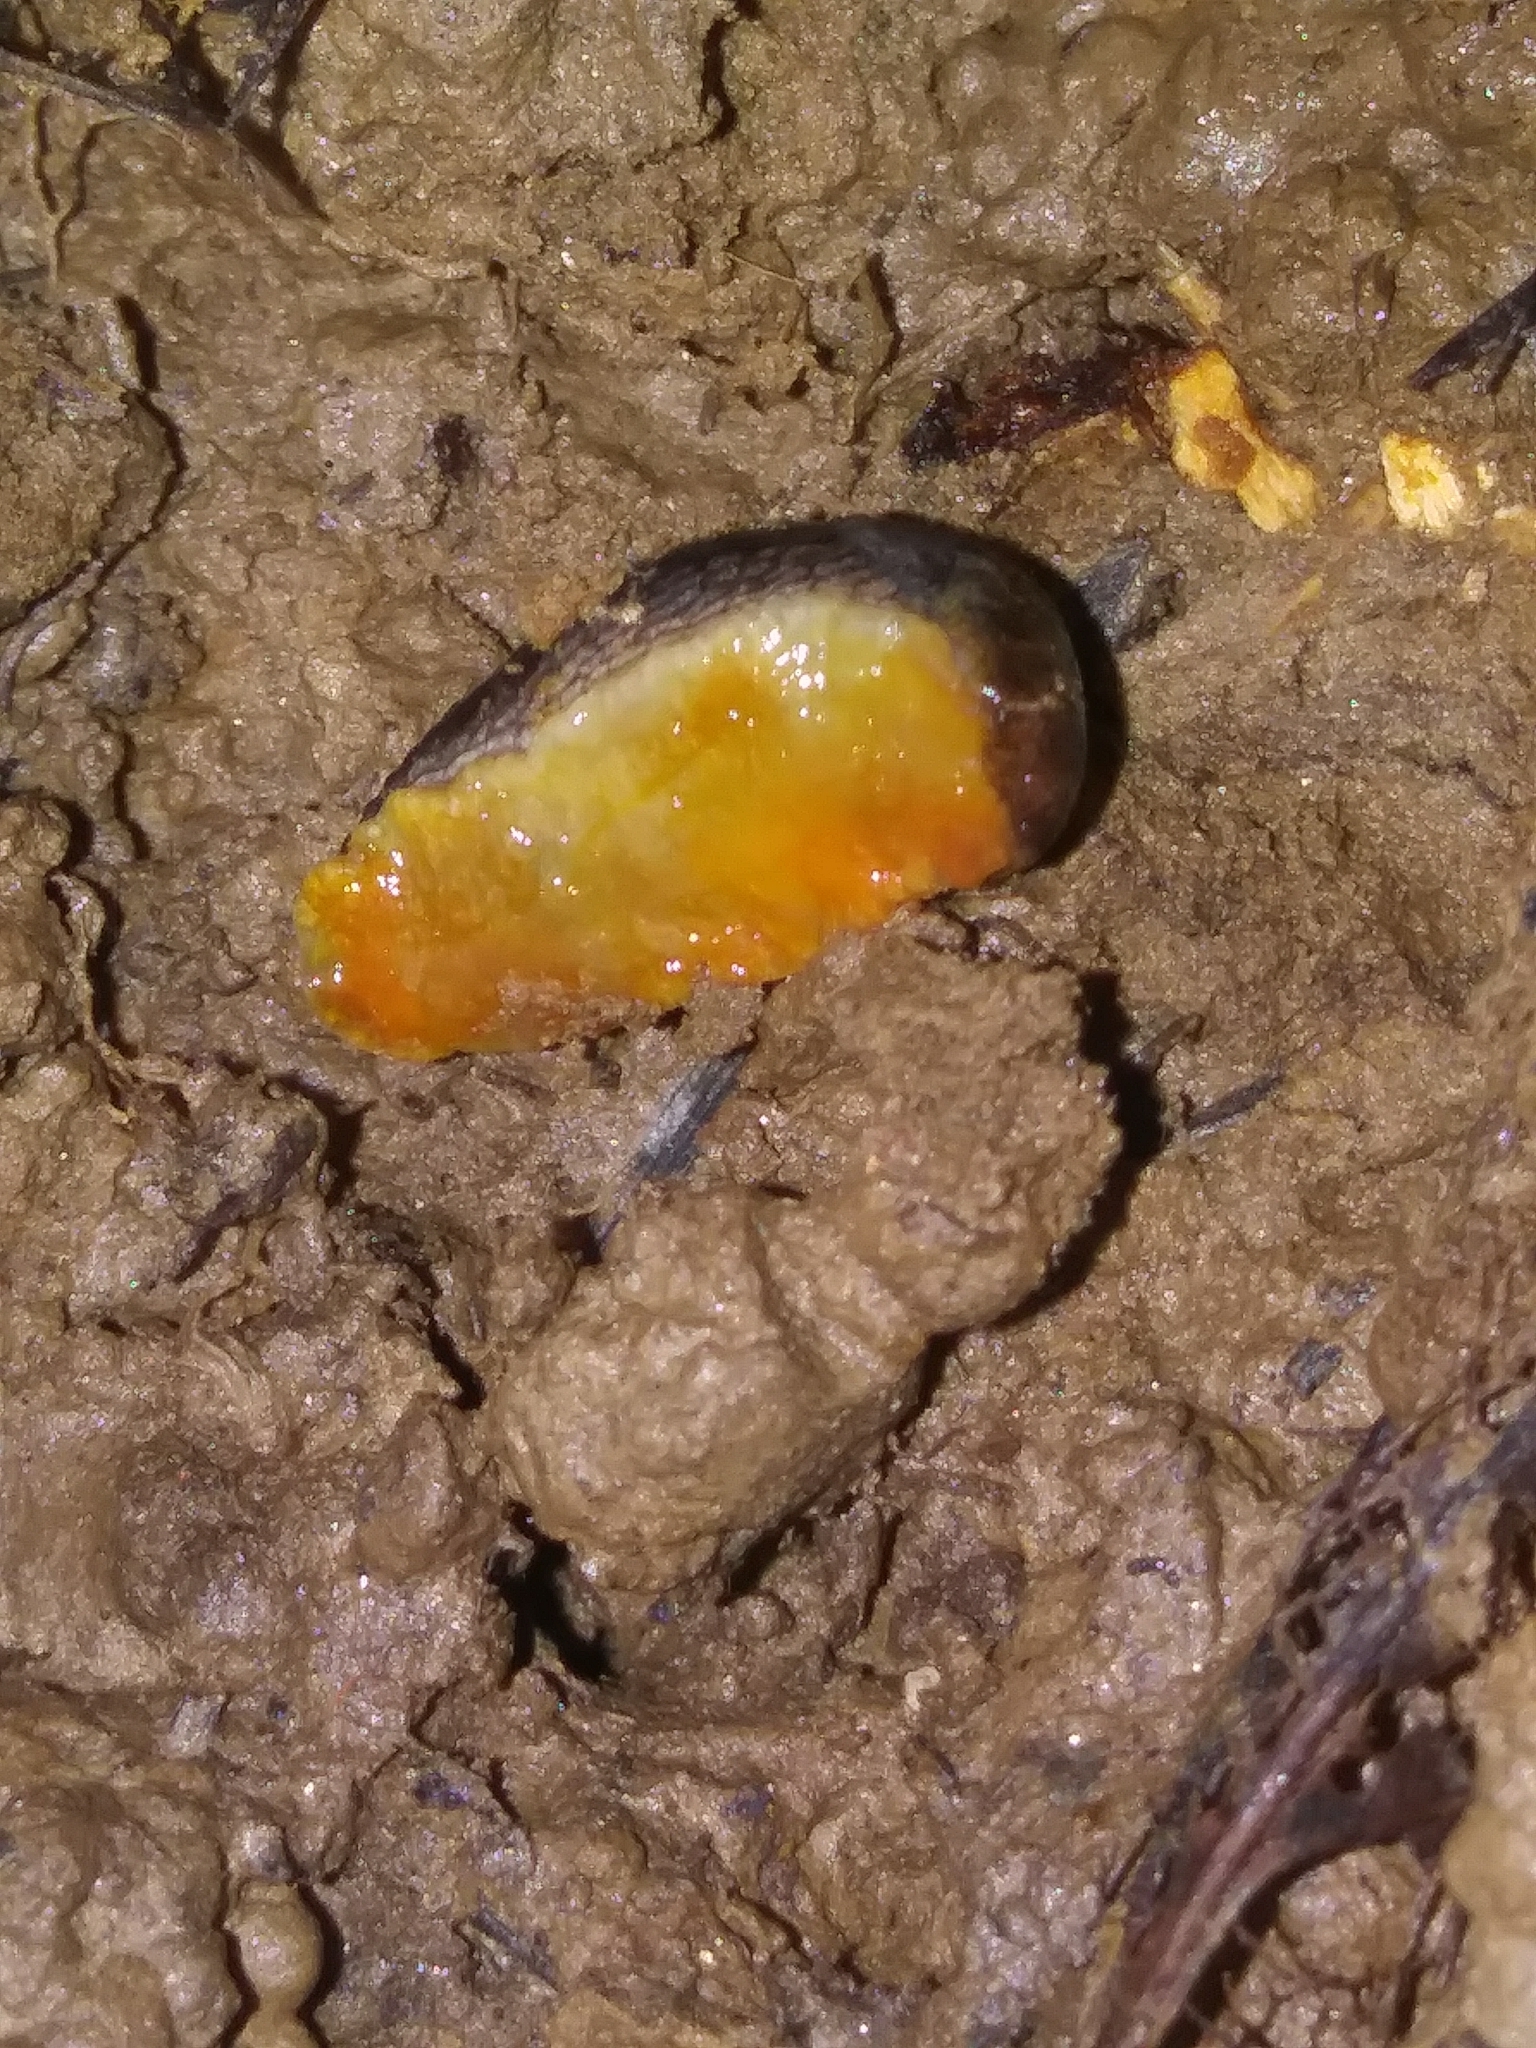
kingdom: Animalia
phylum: Mollusca
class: Gastropoda
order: Stylommatophora
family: Arionidae
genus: Arion
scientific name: Arion hortensis
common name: Garden arion
